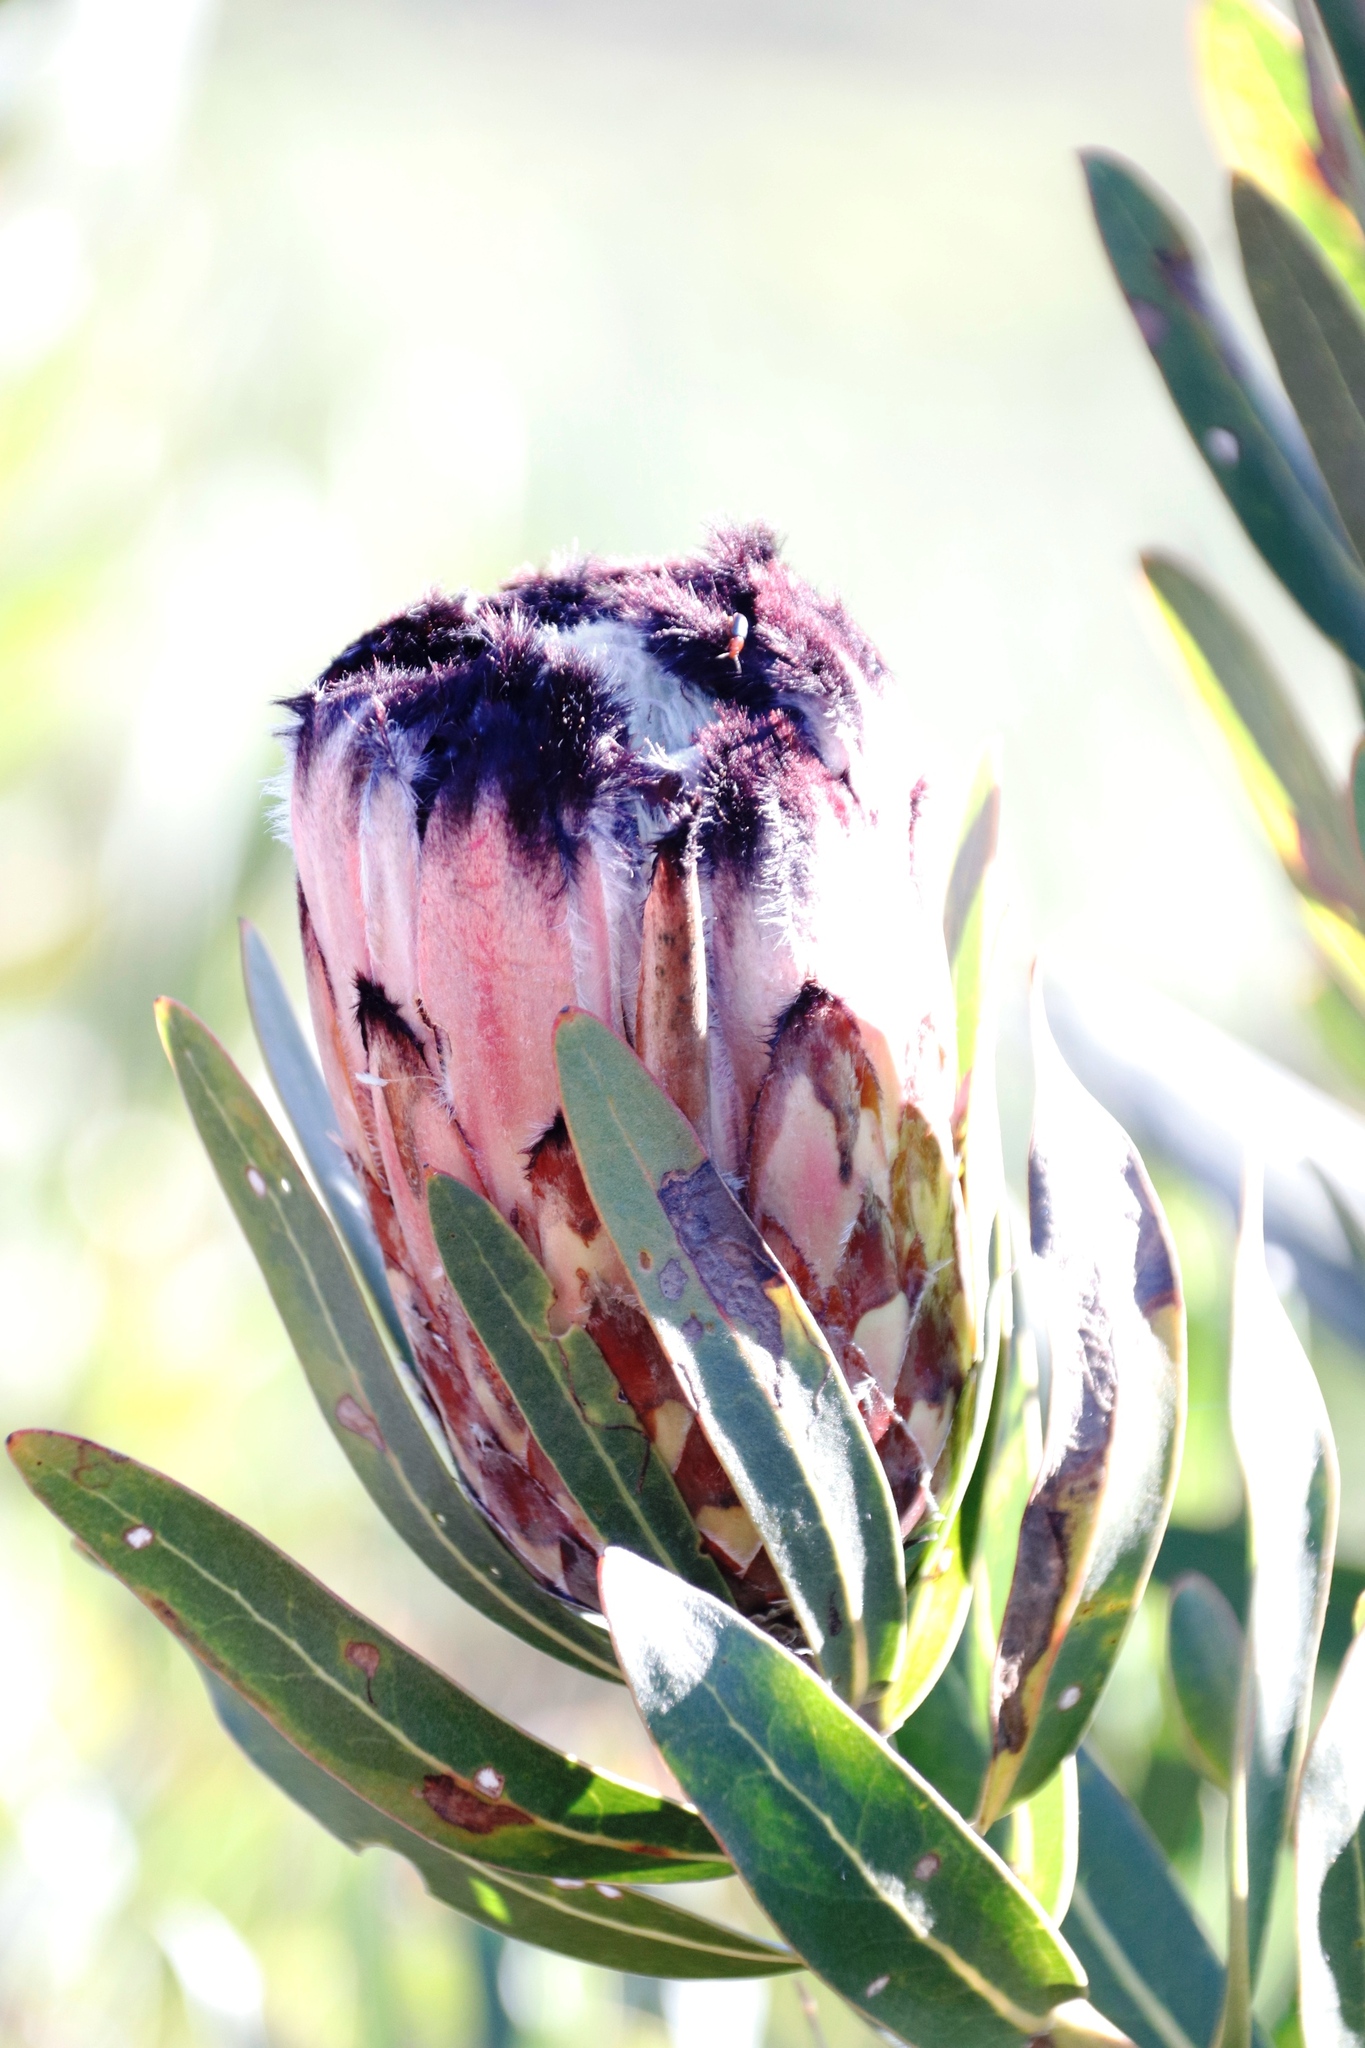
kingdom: Plantae
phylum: Tracheophyta
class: Magnoliopsida
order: Proteales
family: Proteaceae
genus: Protea
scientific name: Protea
